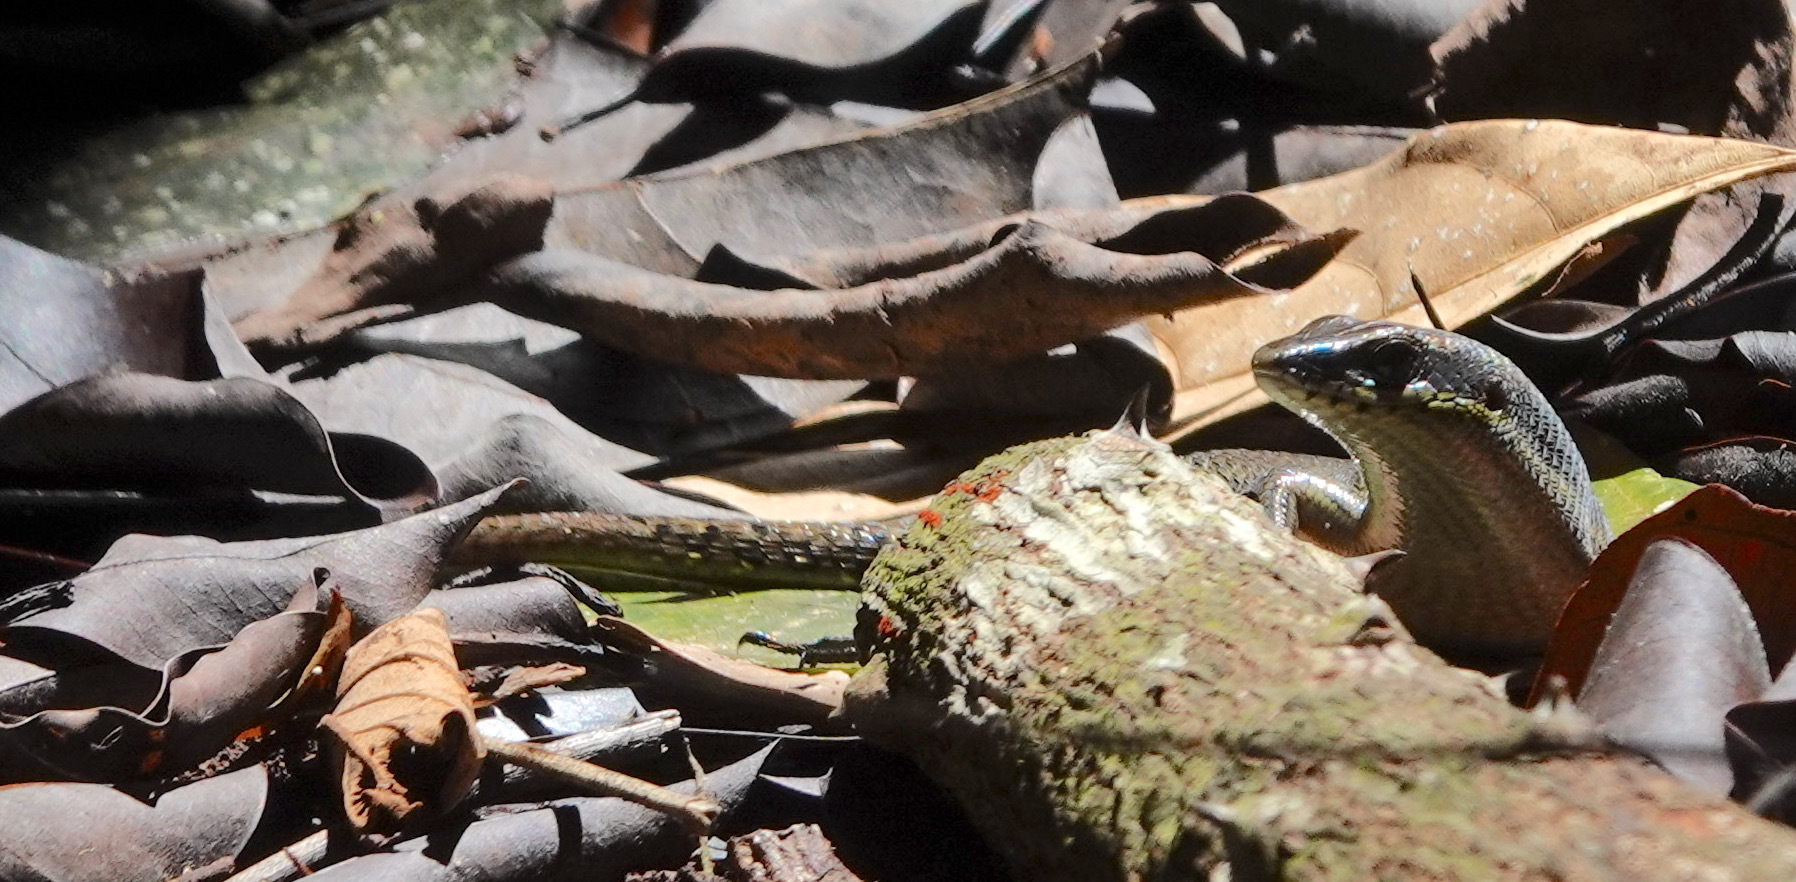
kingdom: Animalia
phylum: Chordata
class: Squamata
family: Scincidae
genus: Eutropis
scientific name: Eutropis rudis
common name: Rough mabuya
